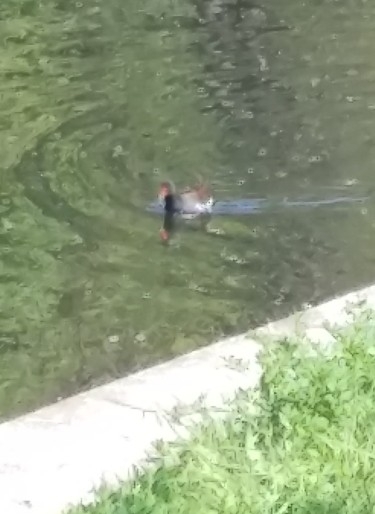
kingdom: Animalia
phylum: Chordata
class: Aves
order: Gruiformes
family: Rallidae
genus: Gallinula
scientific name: Gallinula chloropus
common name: Common moorhen
